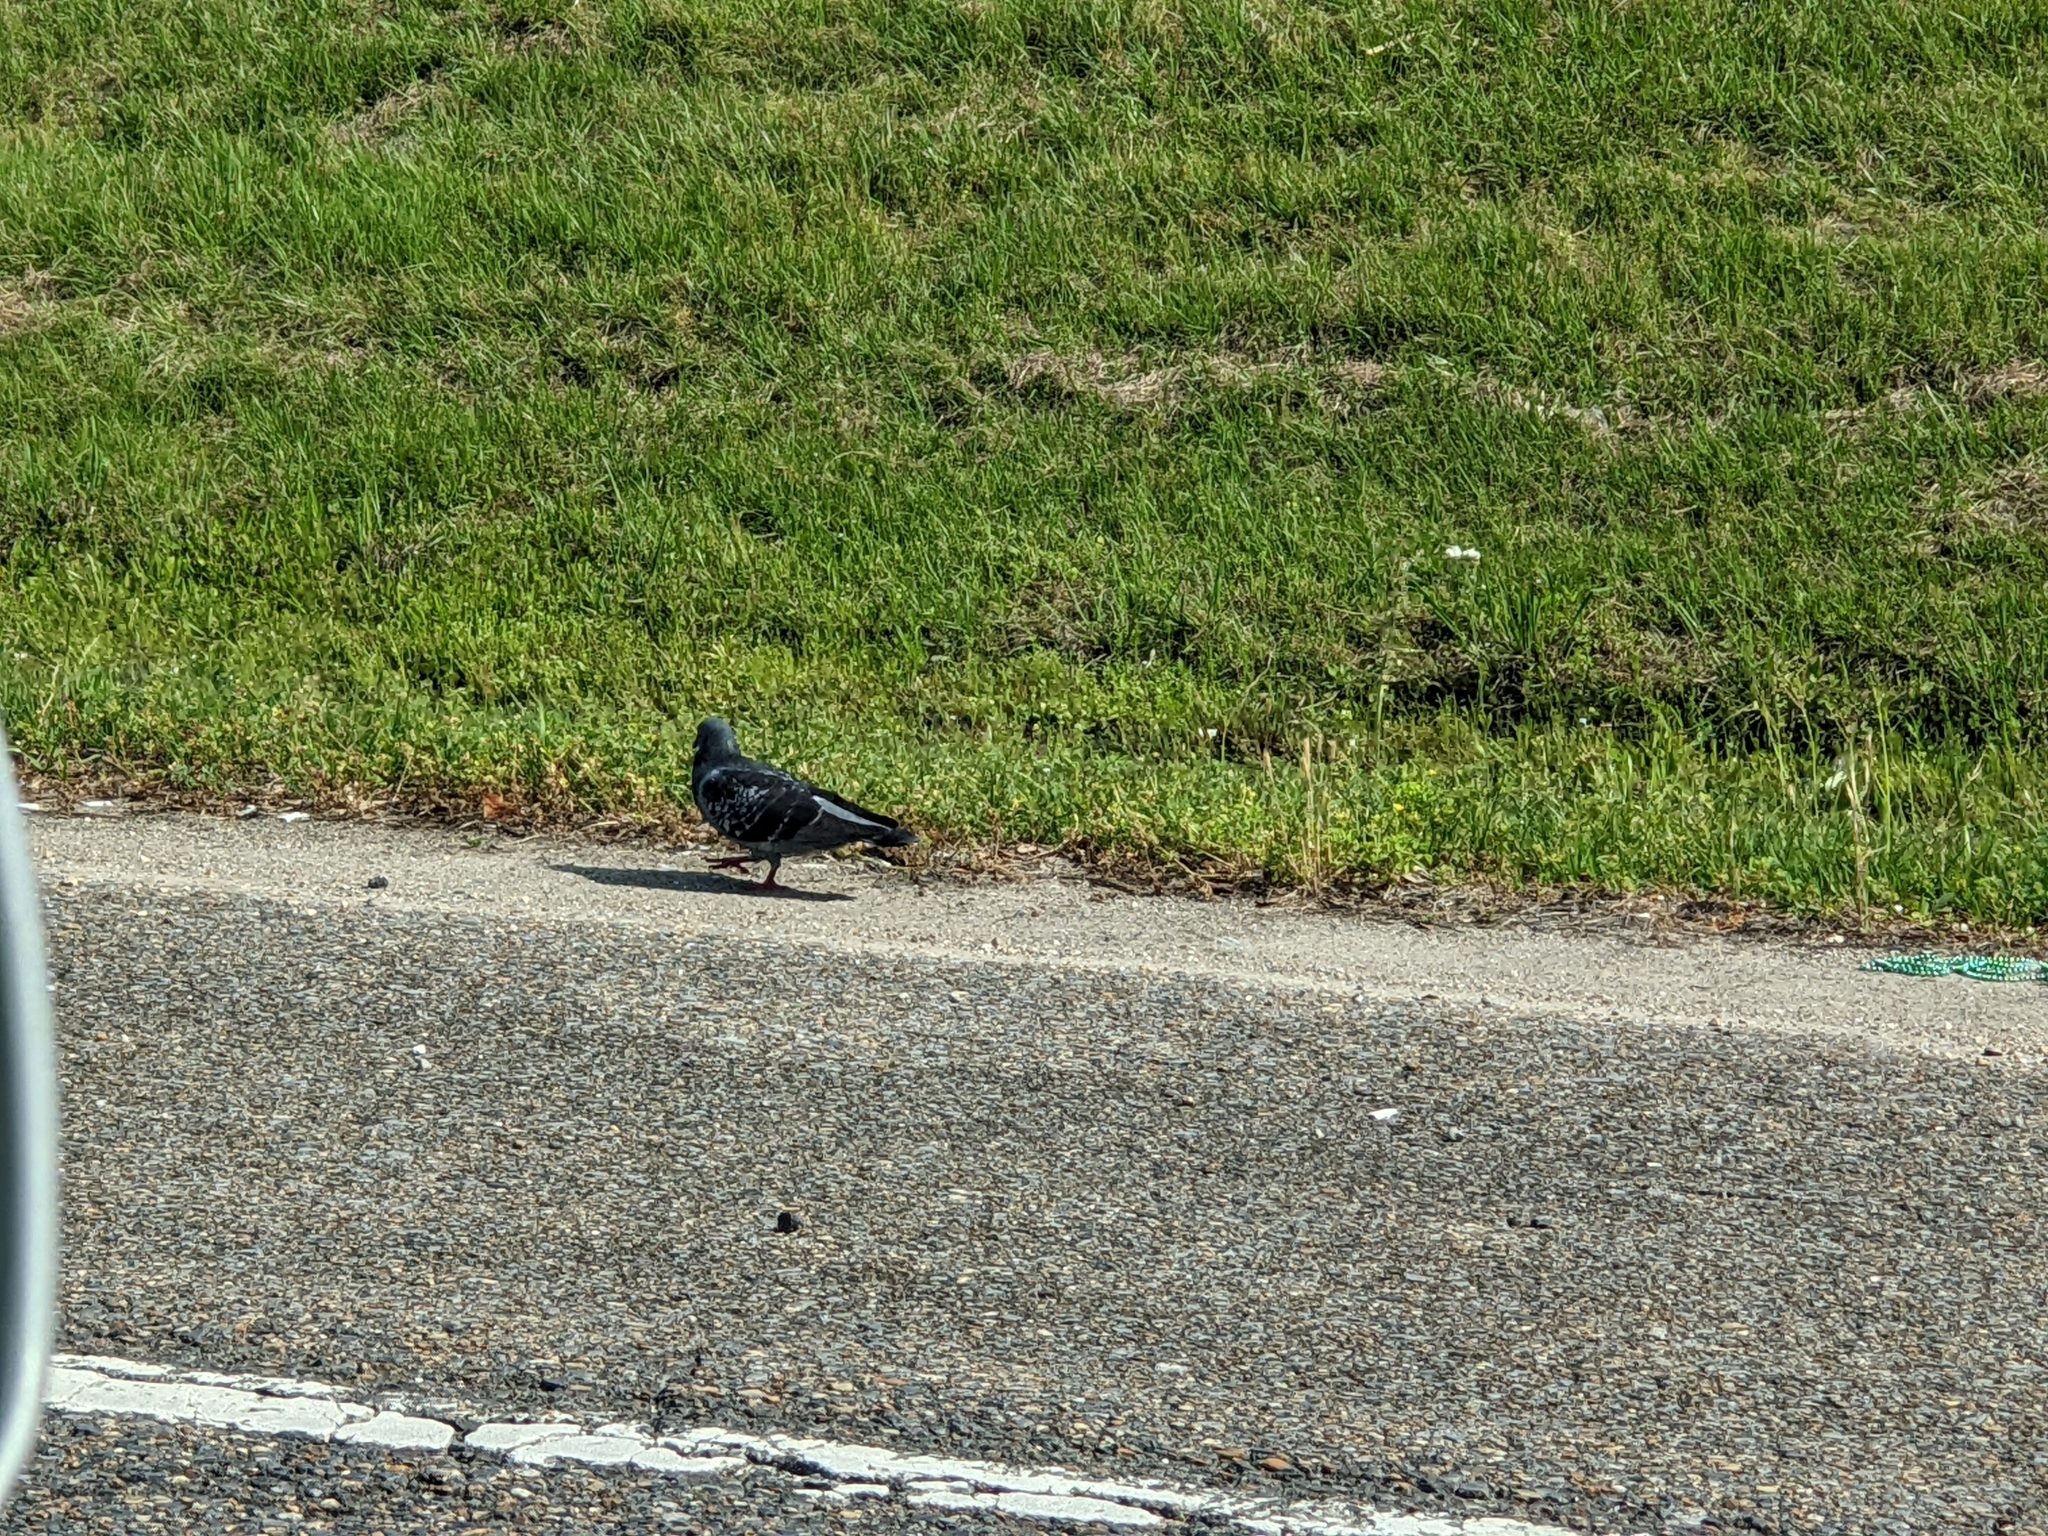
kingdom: Animalia
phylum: Chordata
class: Aves
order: Columbiformes
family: Columbidae
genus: Columba
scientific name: Columba livia
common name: Rock pigeon
